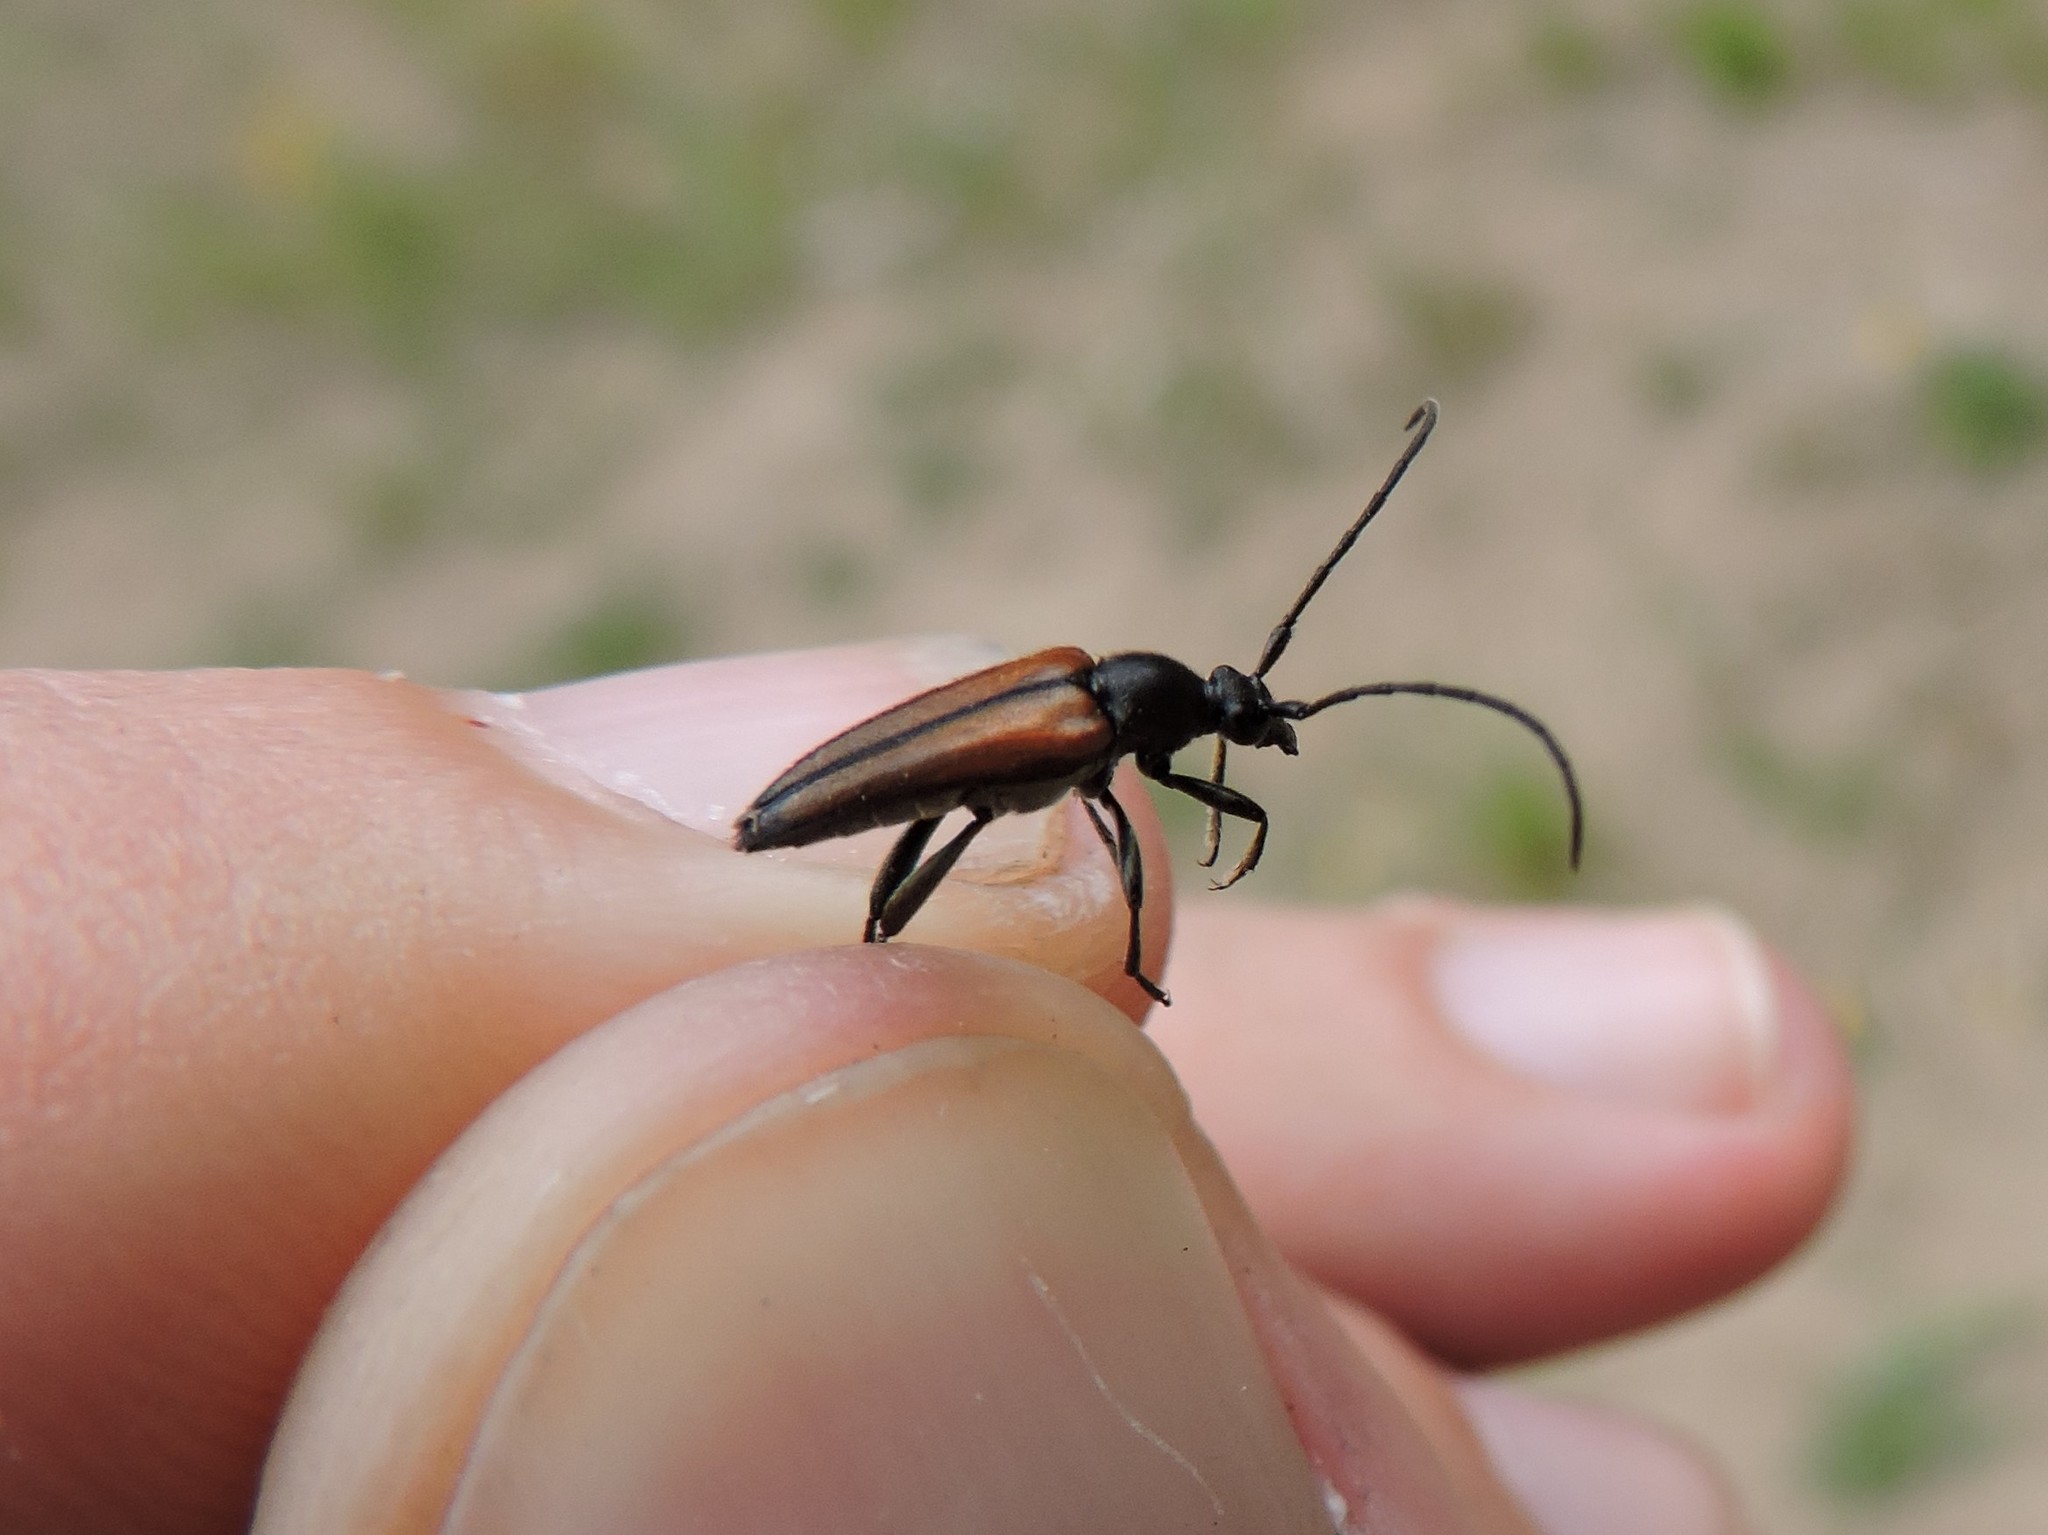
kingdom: Animalia
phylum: Arthropoda
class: Insecta
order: Coleoptera
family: Cerambycidae
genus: Stenurella
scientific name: Stenurella melanura
